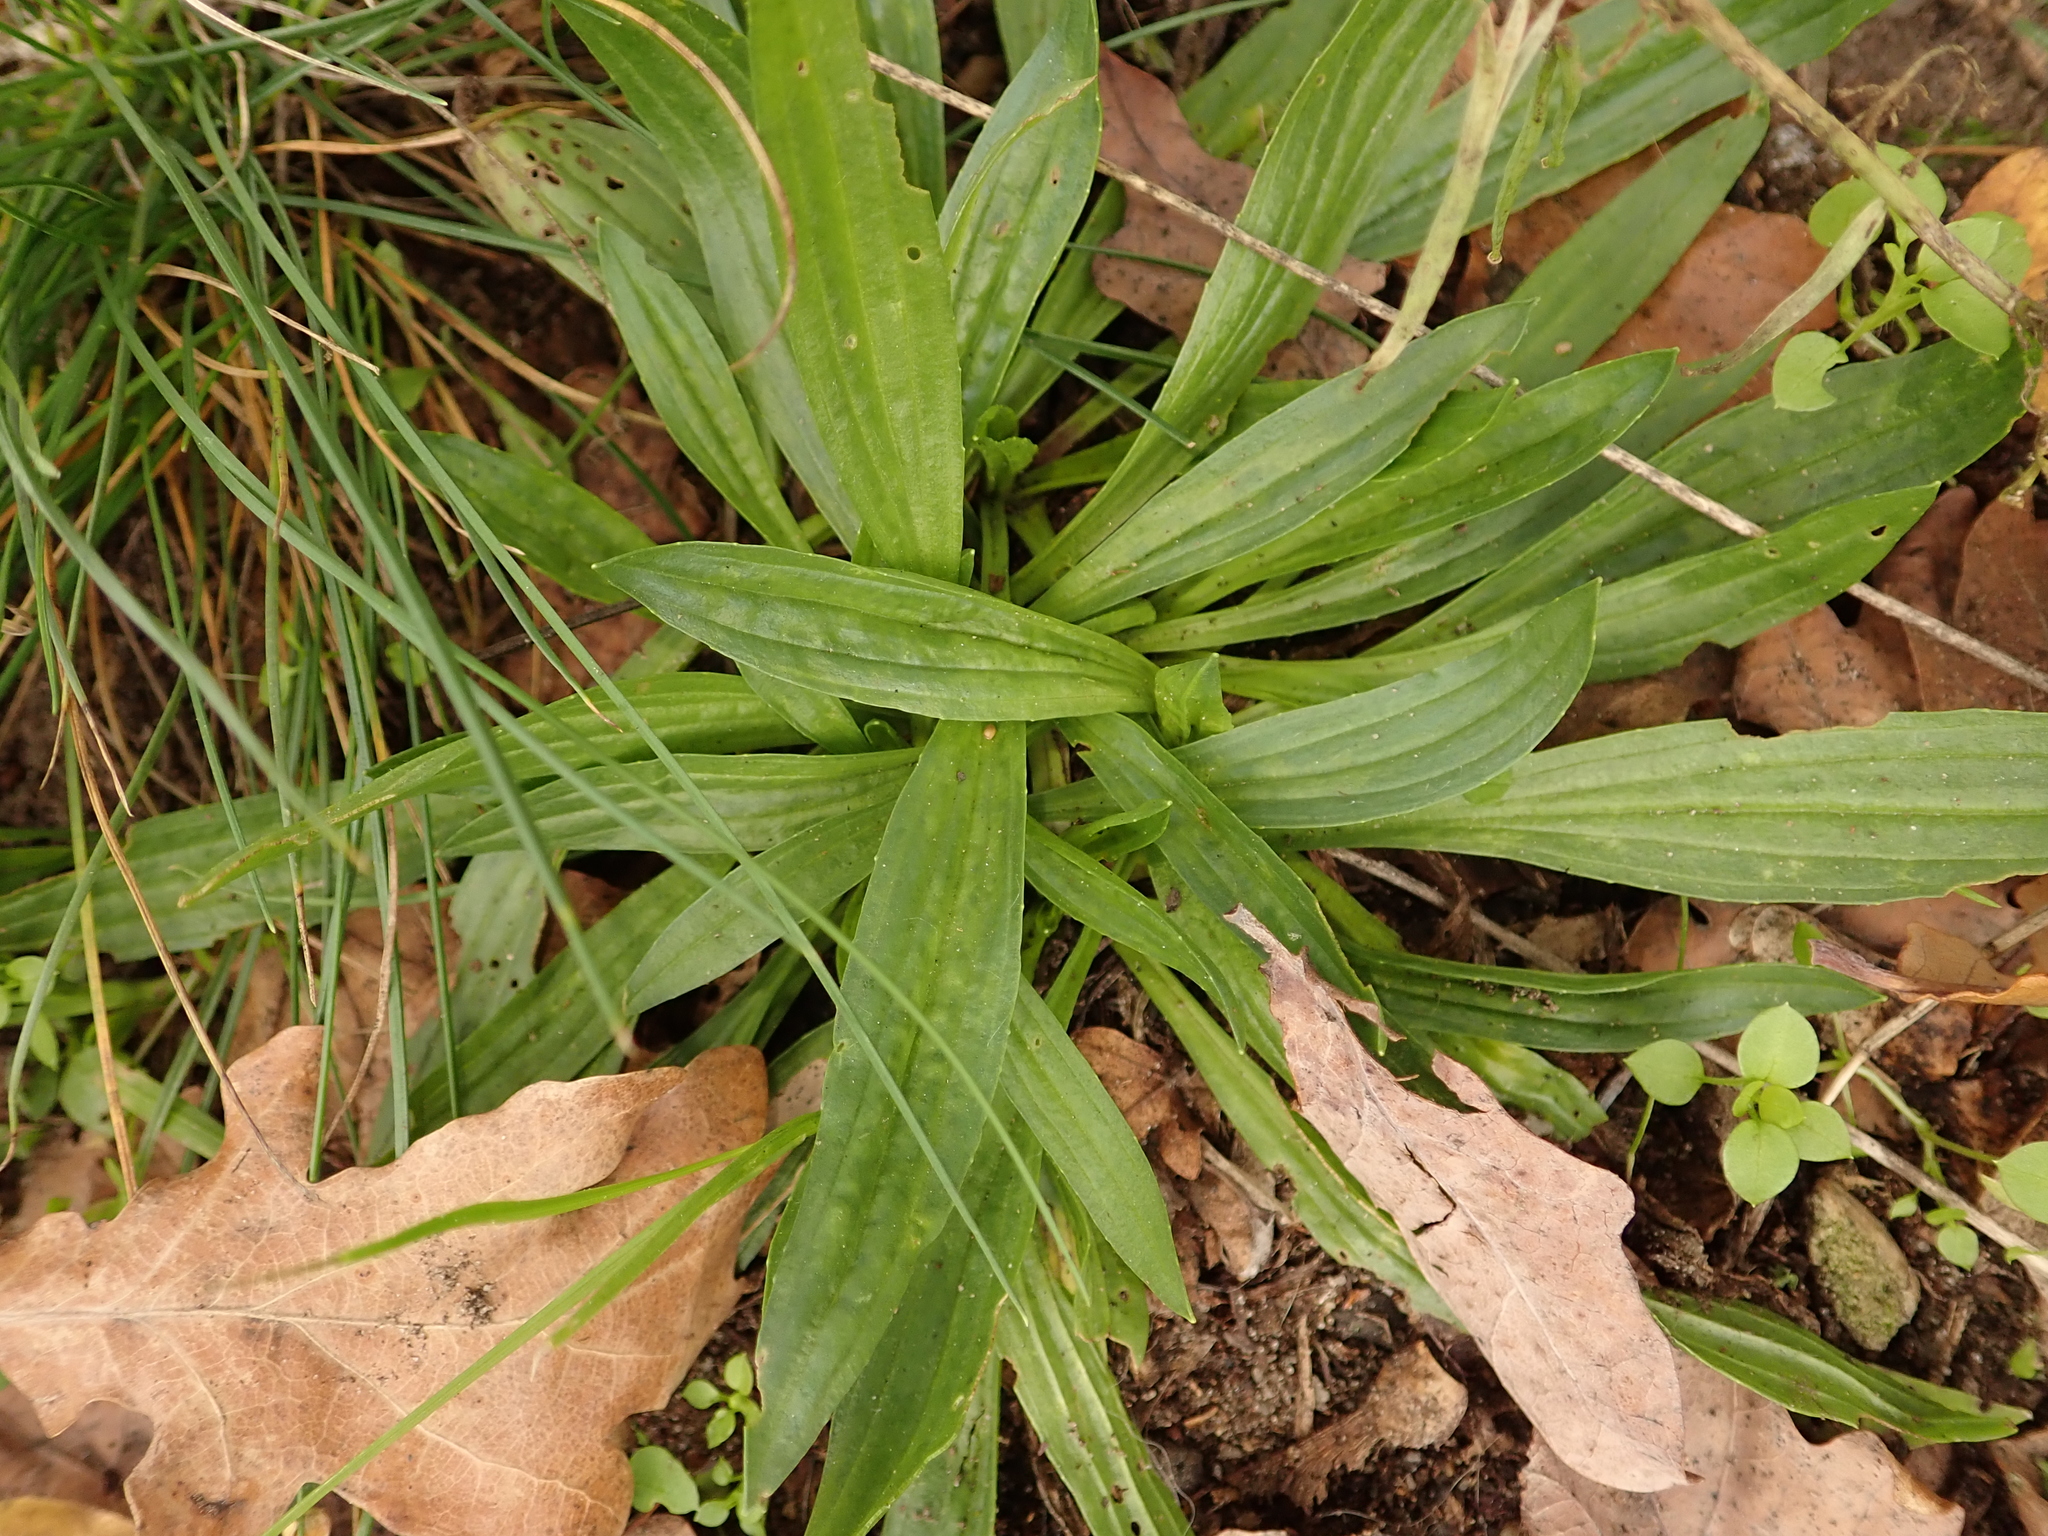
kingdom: Plantae
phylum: Tracheophyta
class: Magnoliopsida
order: Lamiales
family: Plantaginaceae
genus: Plantago
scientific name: Plantago lanceolata
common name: Ribwort plantain
